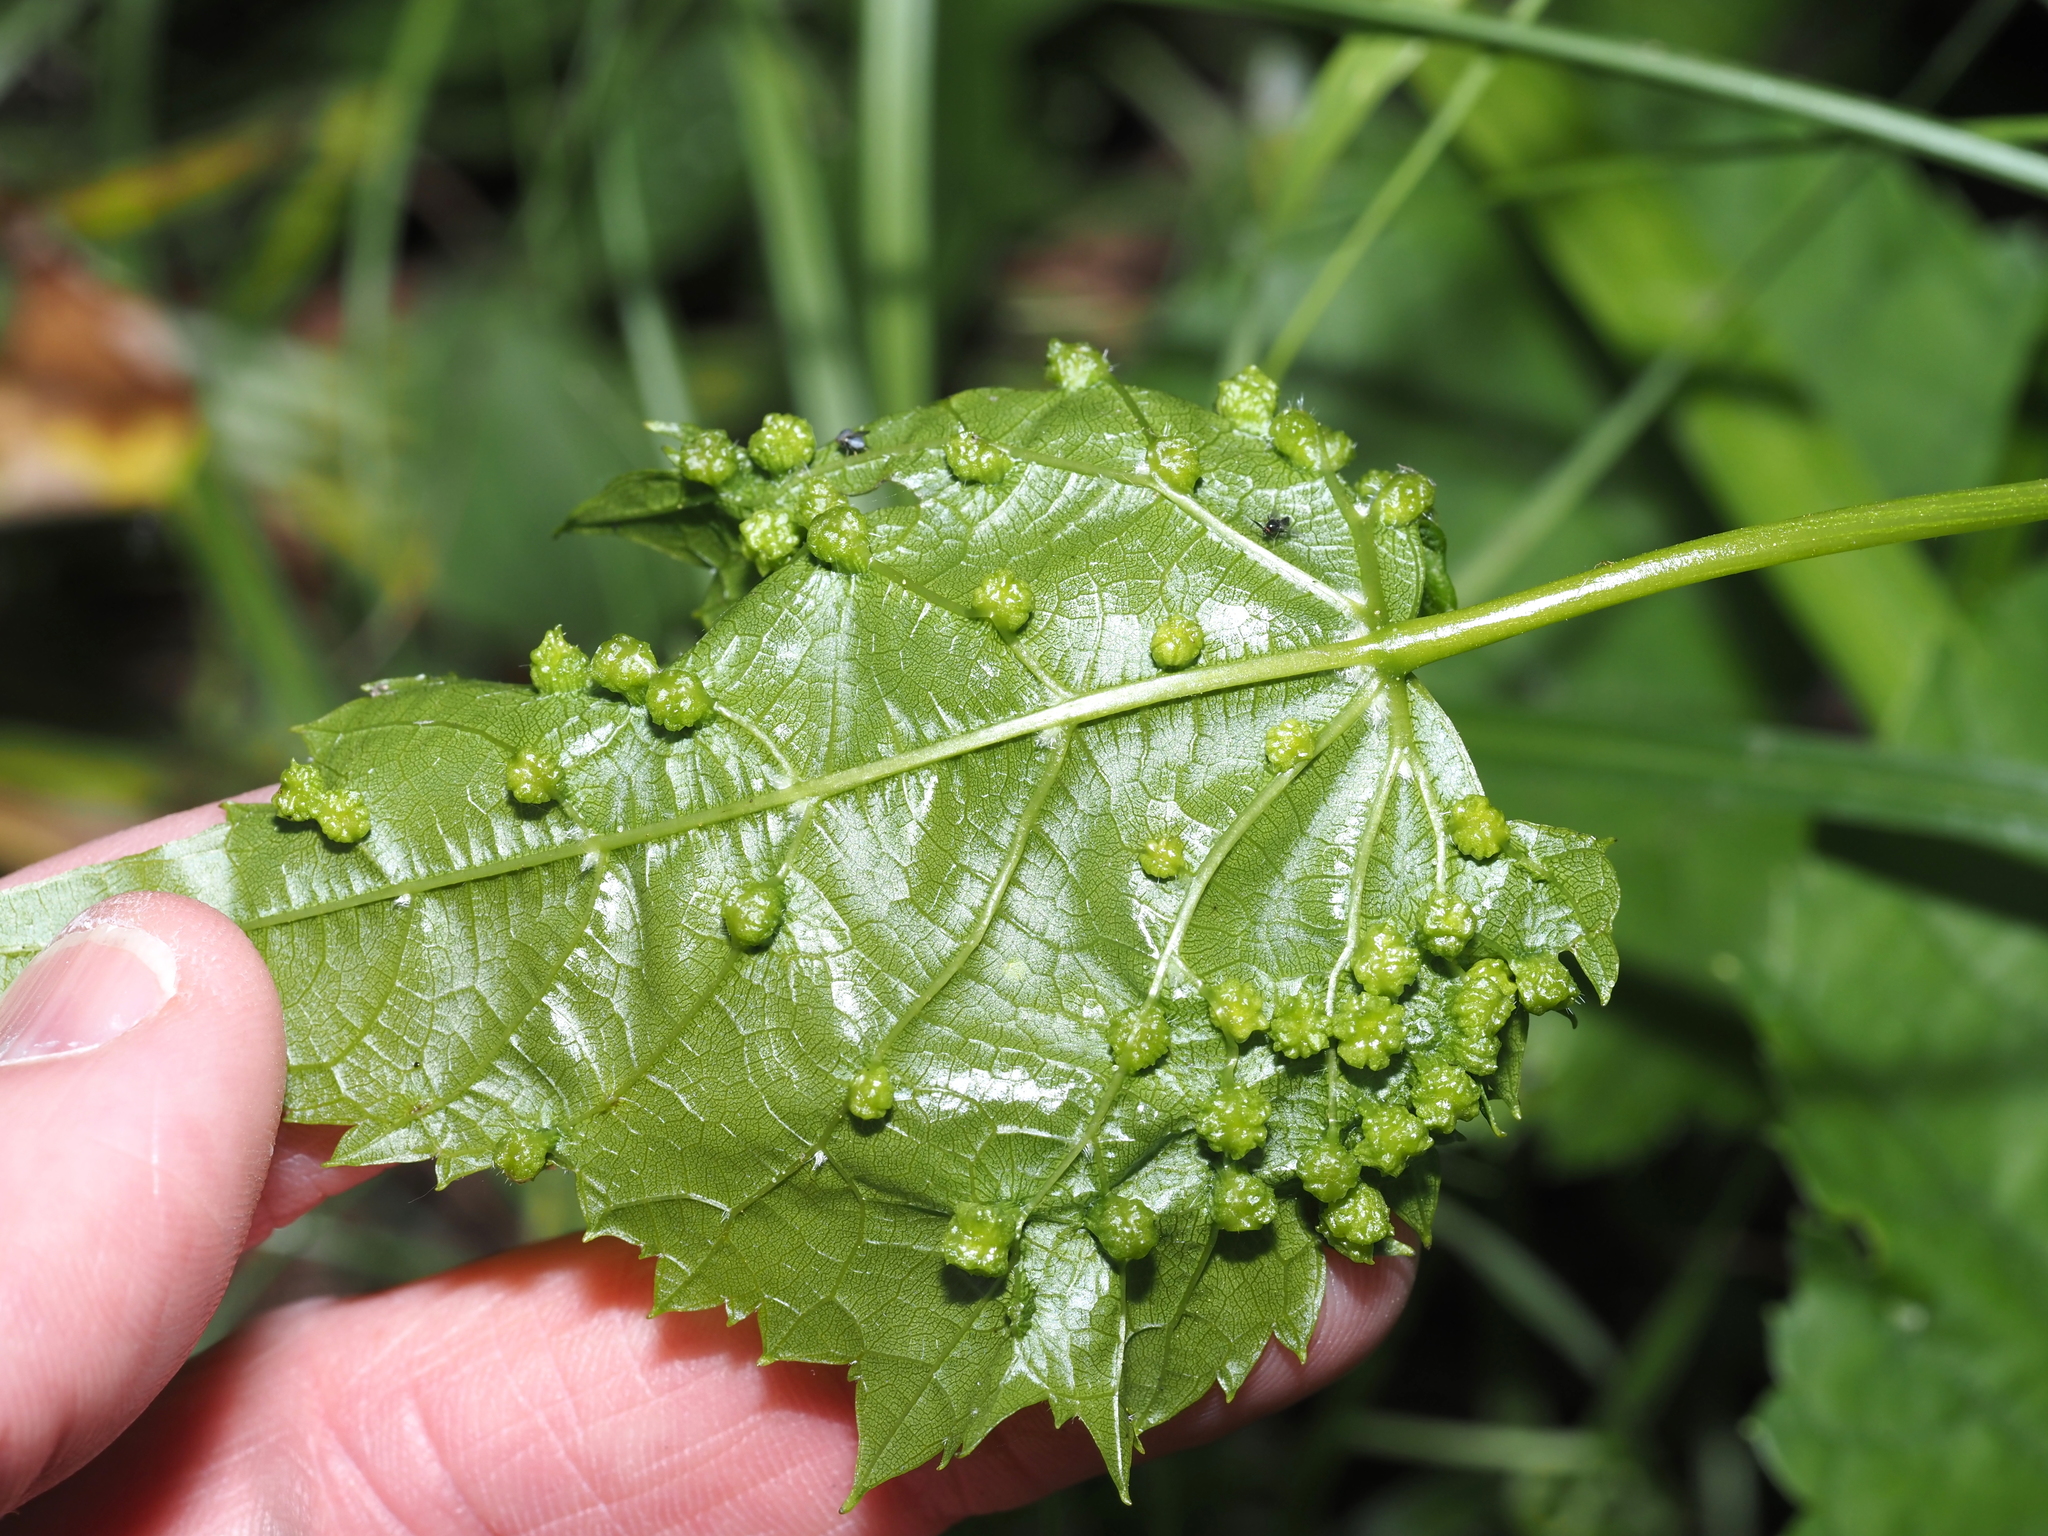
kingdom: Animalia
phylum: Arthropoda
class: Insecta
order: Hemiptera
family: Phylloxeridae
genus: Daktulosphaira
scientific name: Daktulosphaira vitifoliae
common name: Grape phylloxera
